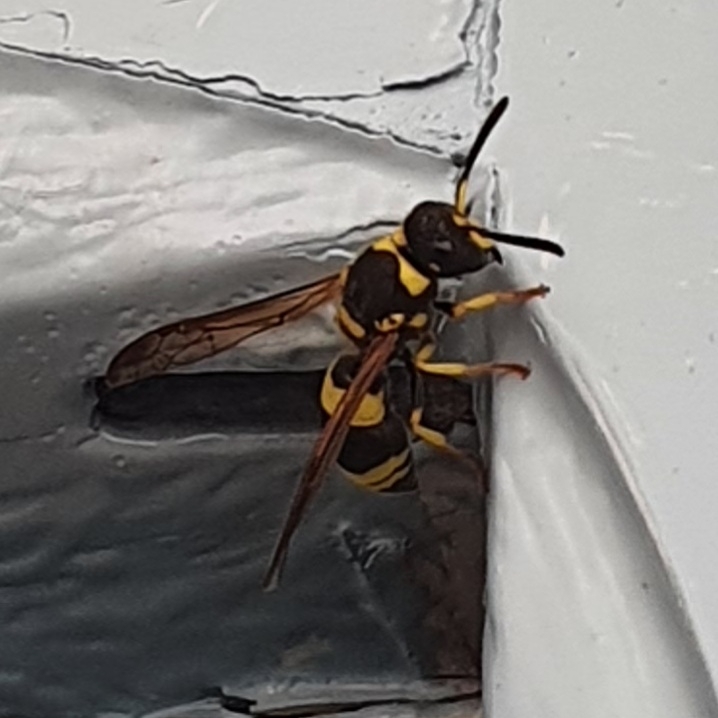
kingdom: Animalia
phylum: Arthropoda
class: Insecta
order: Hymenoptera
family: Vespidae
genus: Ancistrocerus
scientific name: Ancistrocerus
